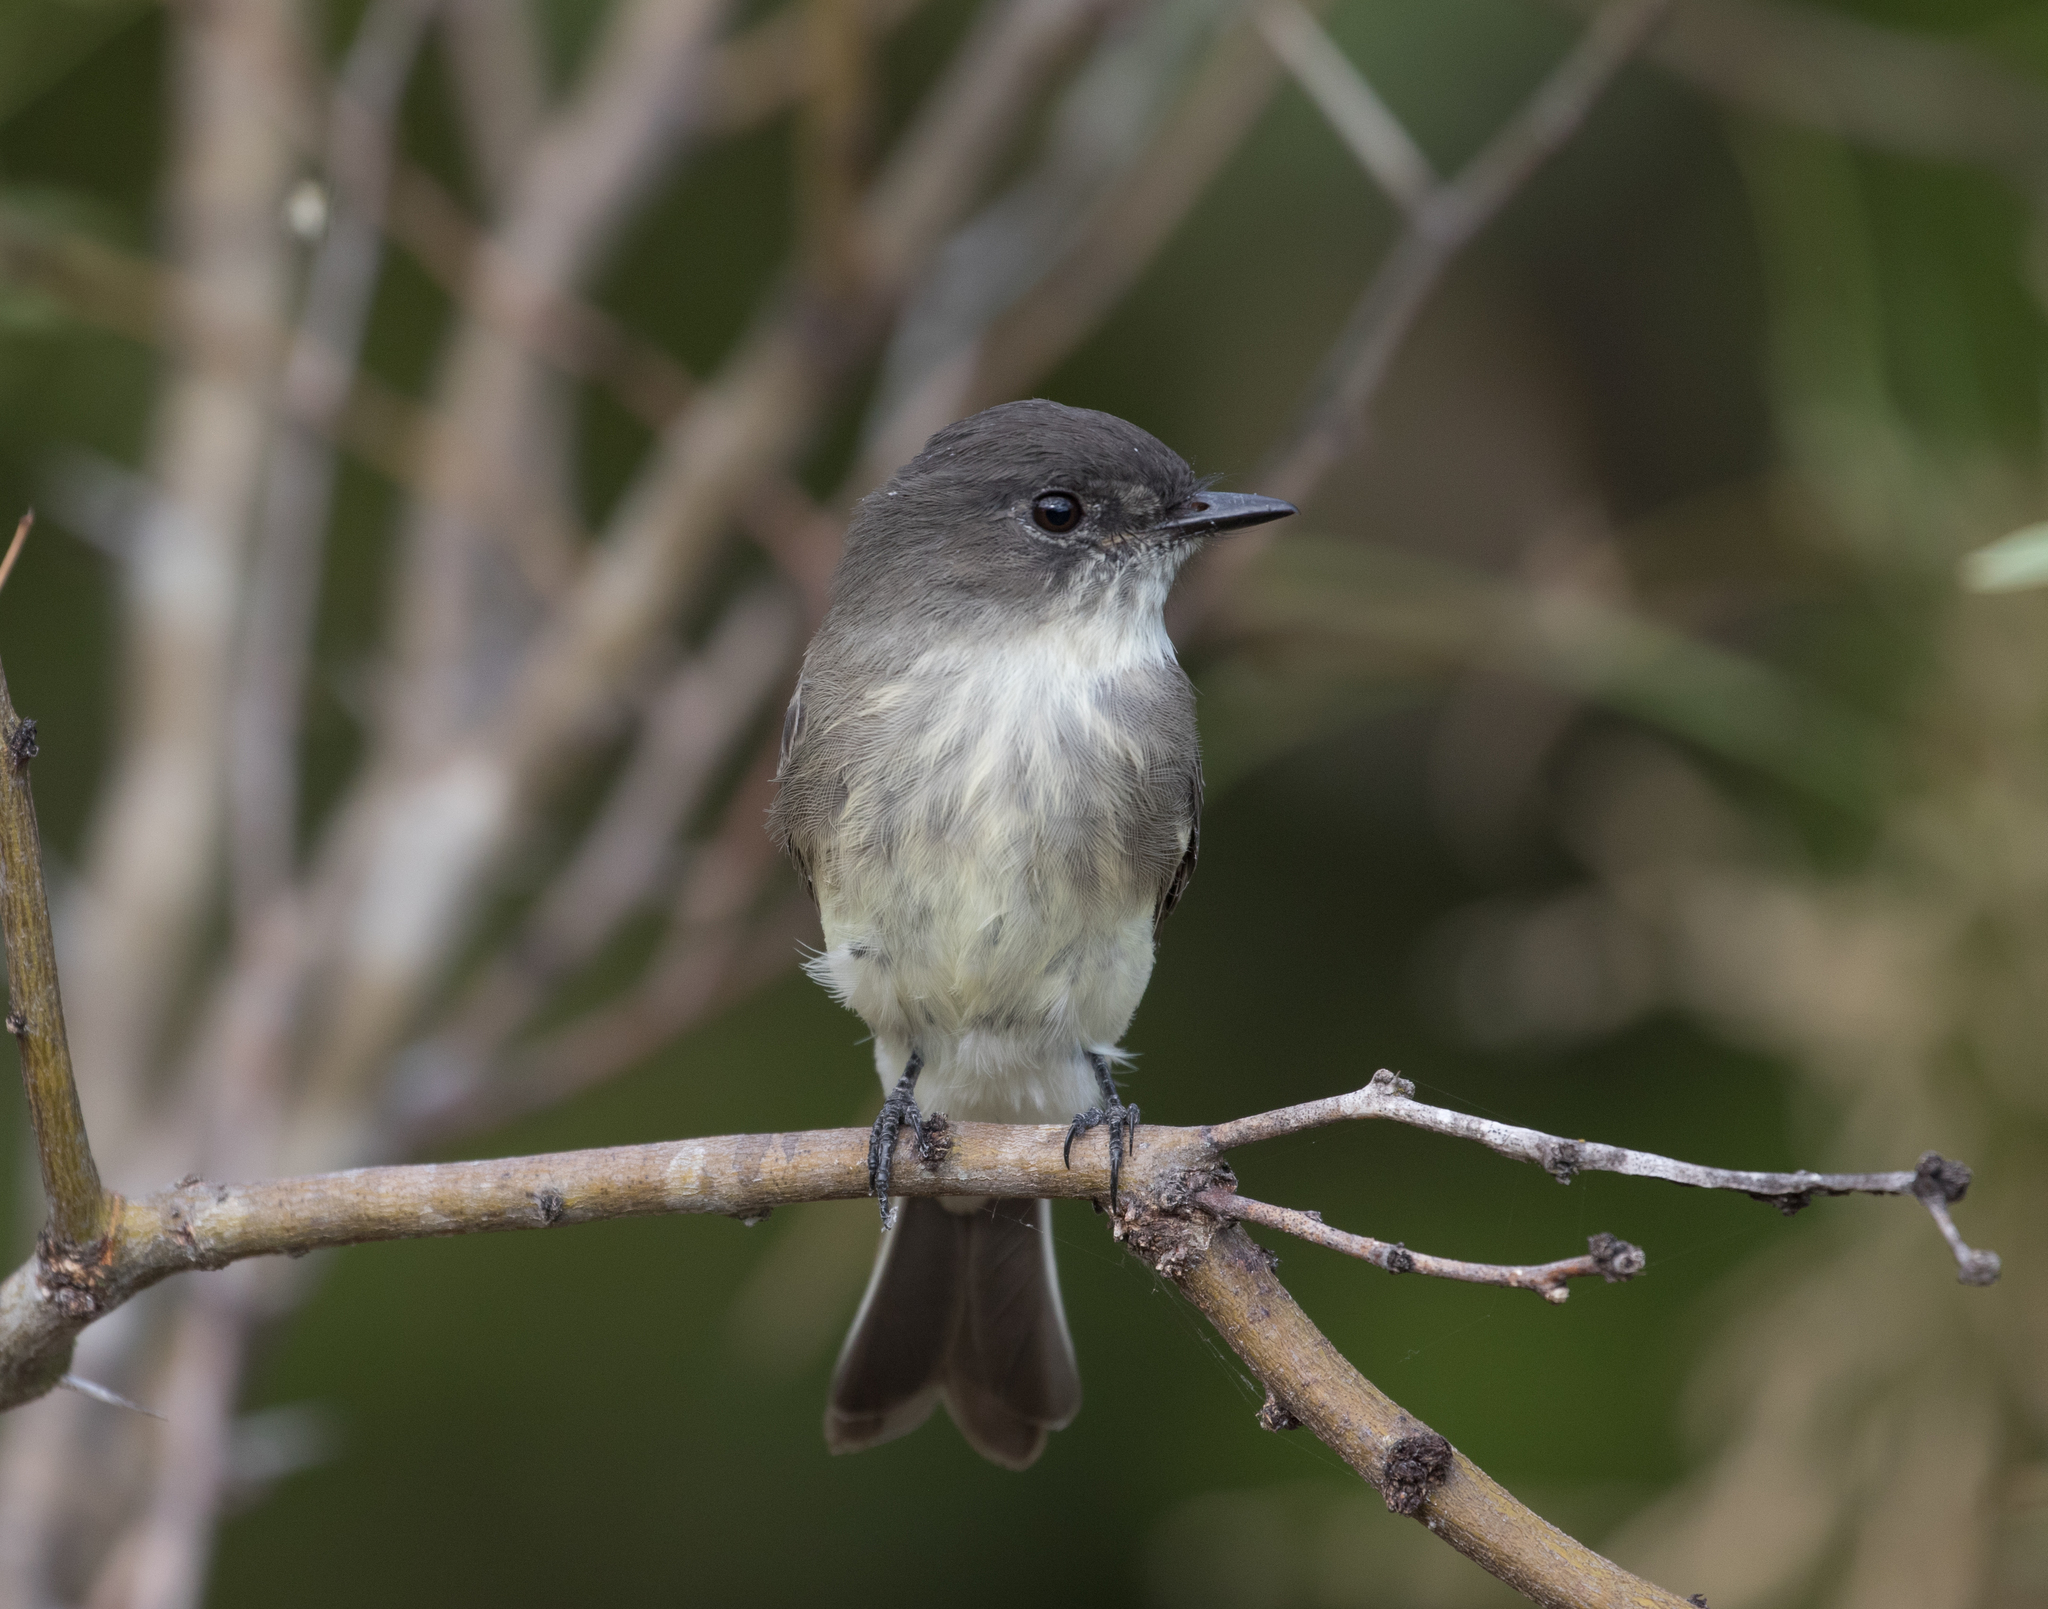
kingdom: Animalia
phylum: Chordata
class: Aves
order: Passeriformes
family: Tyrannidae
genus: Sayornis
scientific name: Sayornis phoebe
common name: Eastern phoebe
